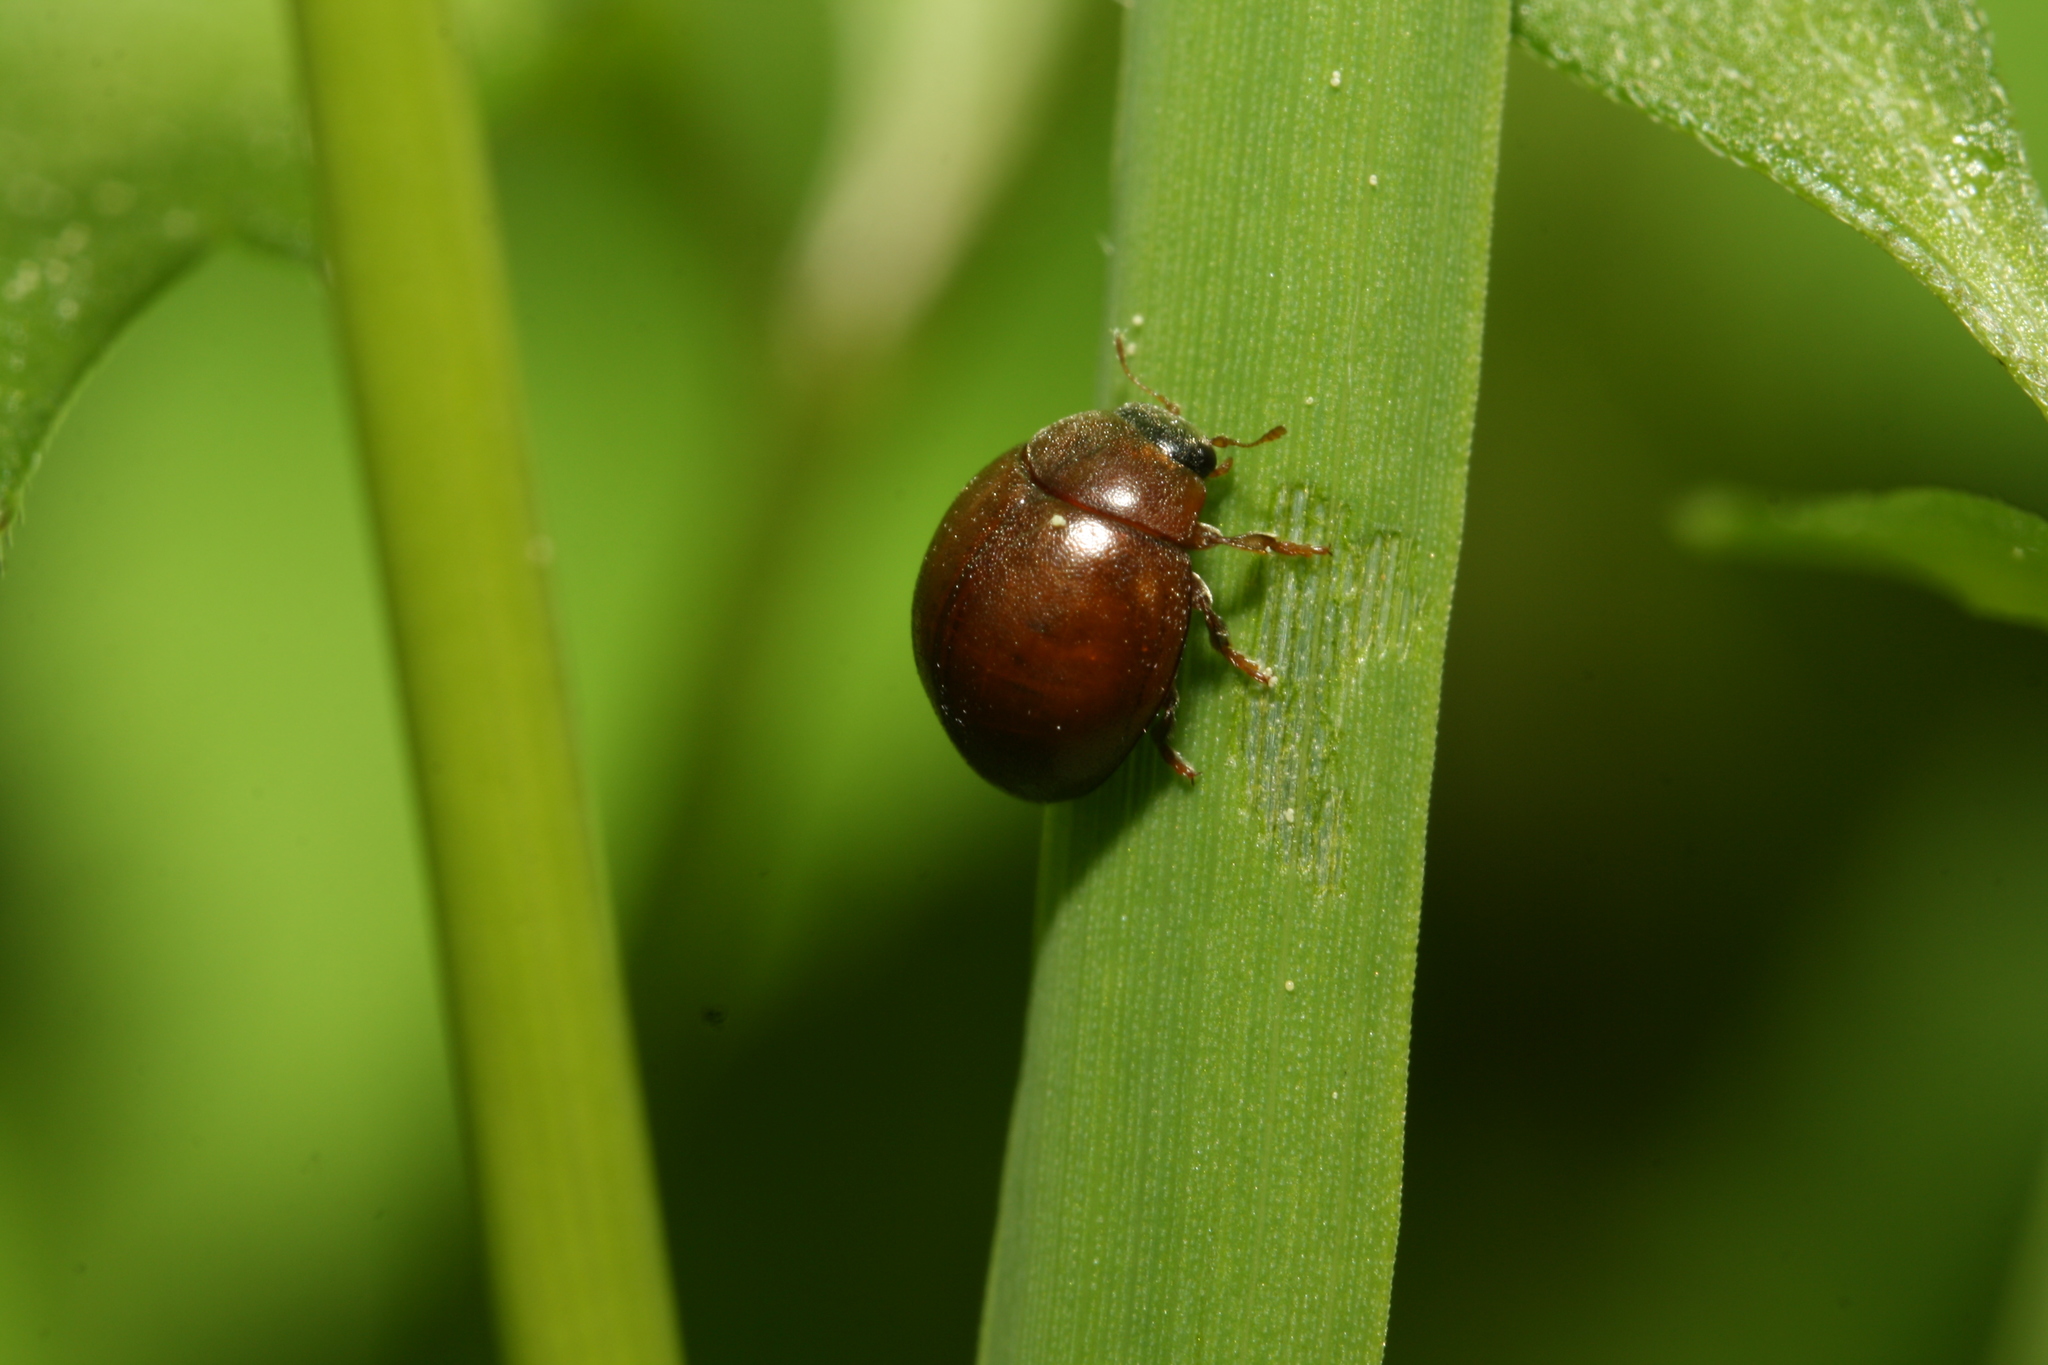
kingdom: Animalia
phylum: Arthropoda
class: Insecta
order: Coleoptera
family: Coccinellidae
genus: Cynegetis
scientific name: Cynegetis impunctata
